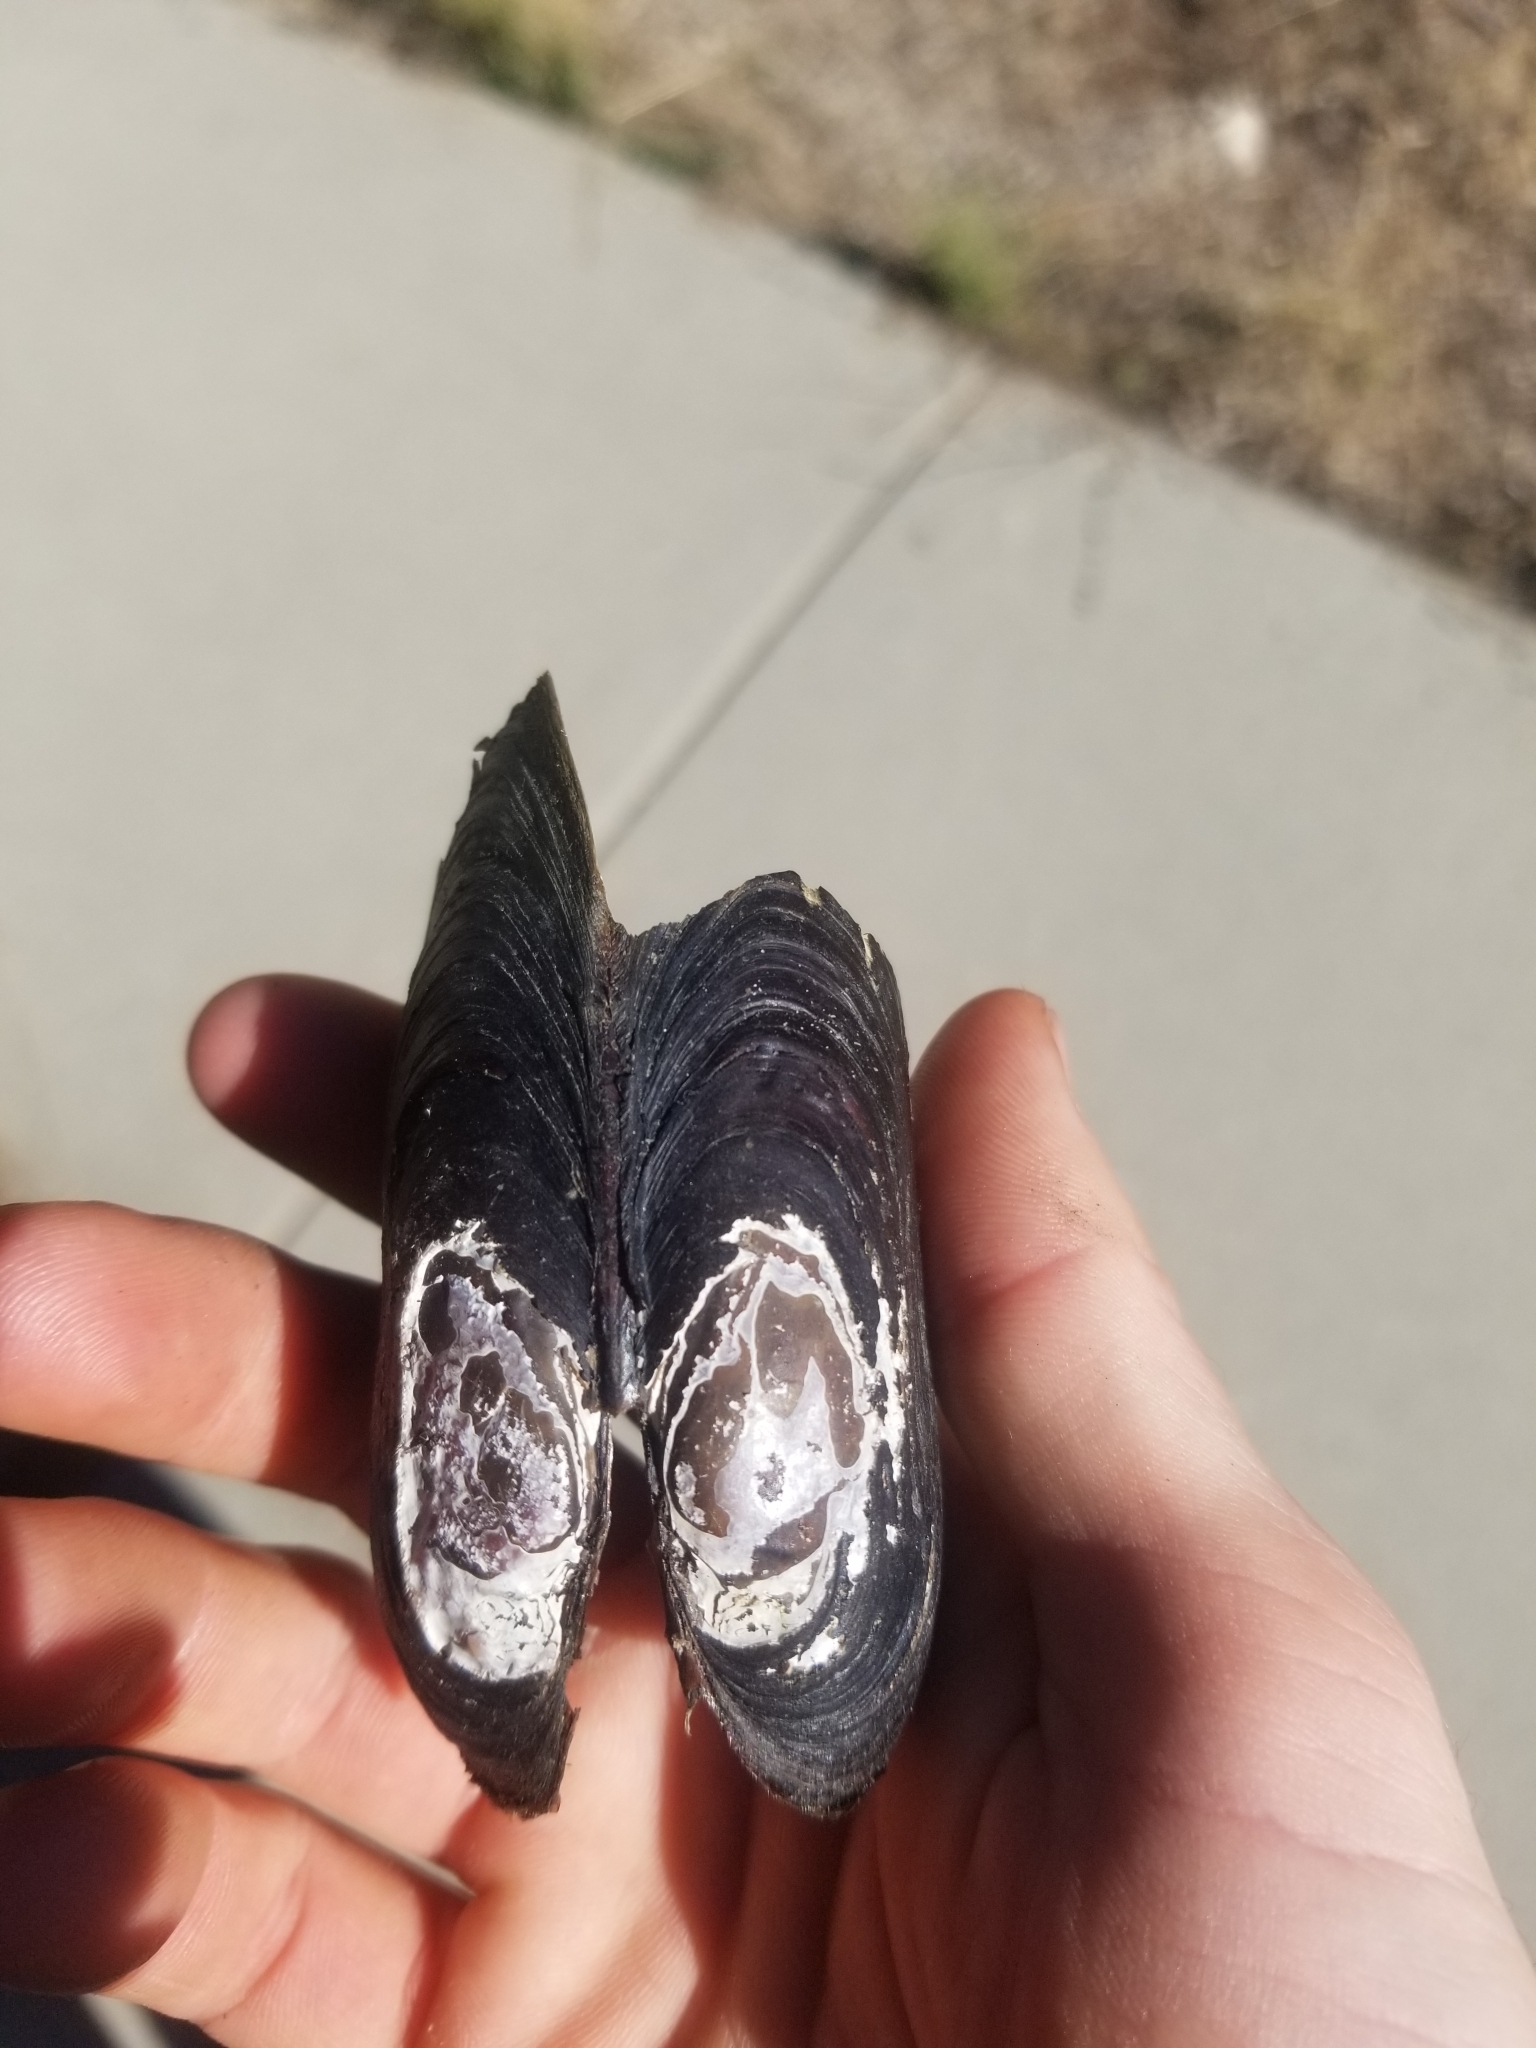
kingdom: Animalia
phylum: Mollusca
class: Bivalvia
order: Unionida
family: Margaritiferidae
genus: Margaritifera
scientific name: Margaritifera falcata
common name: Western pearlshell
